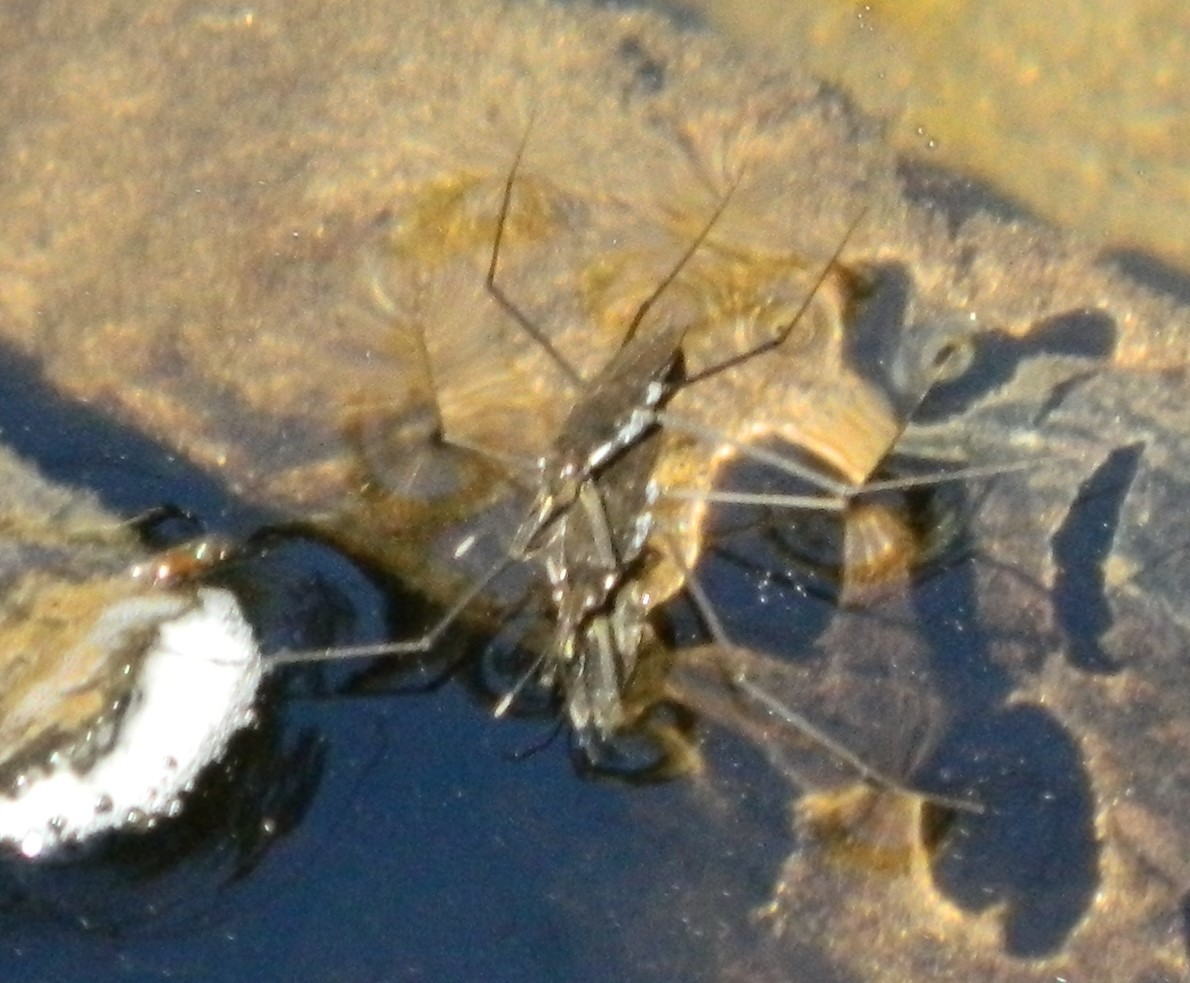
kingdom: Animalia
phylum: Arthropoda
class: Insecta
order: Hemiptera
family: Gerridae
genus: Aquarius
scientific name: Aquarius remigis
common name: Common water strider
